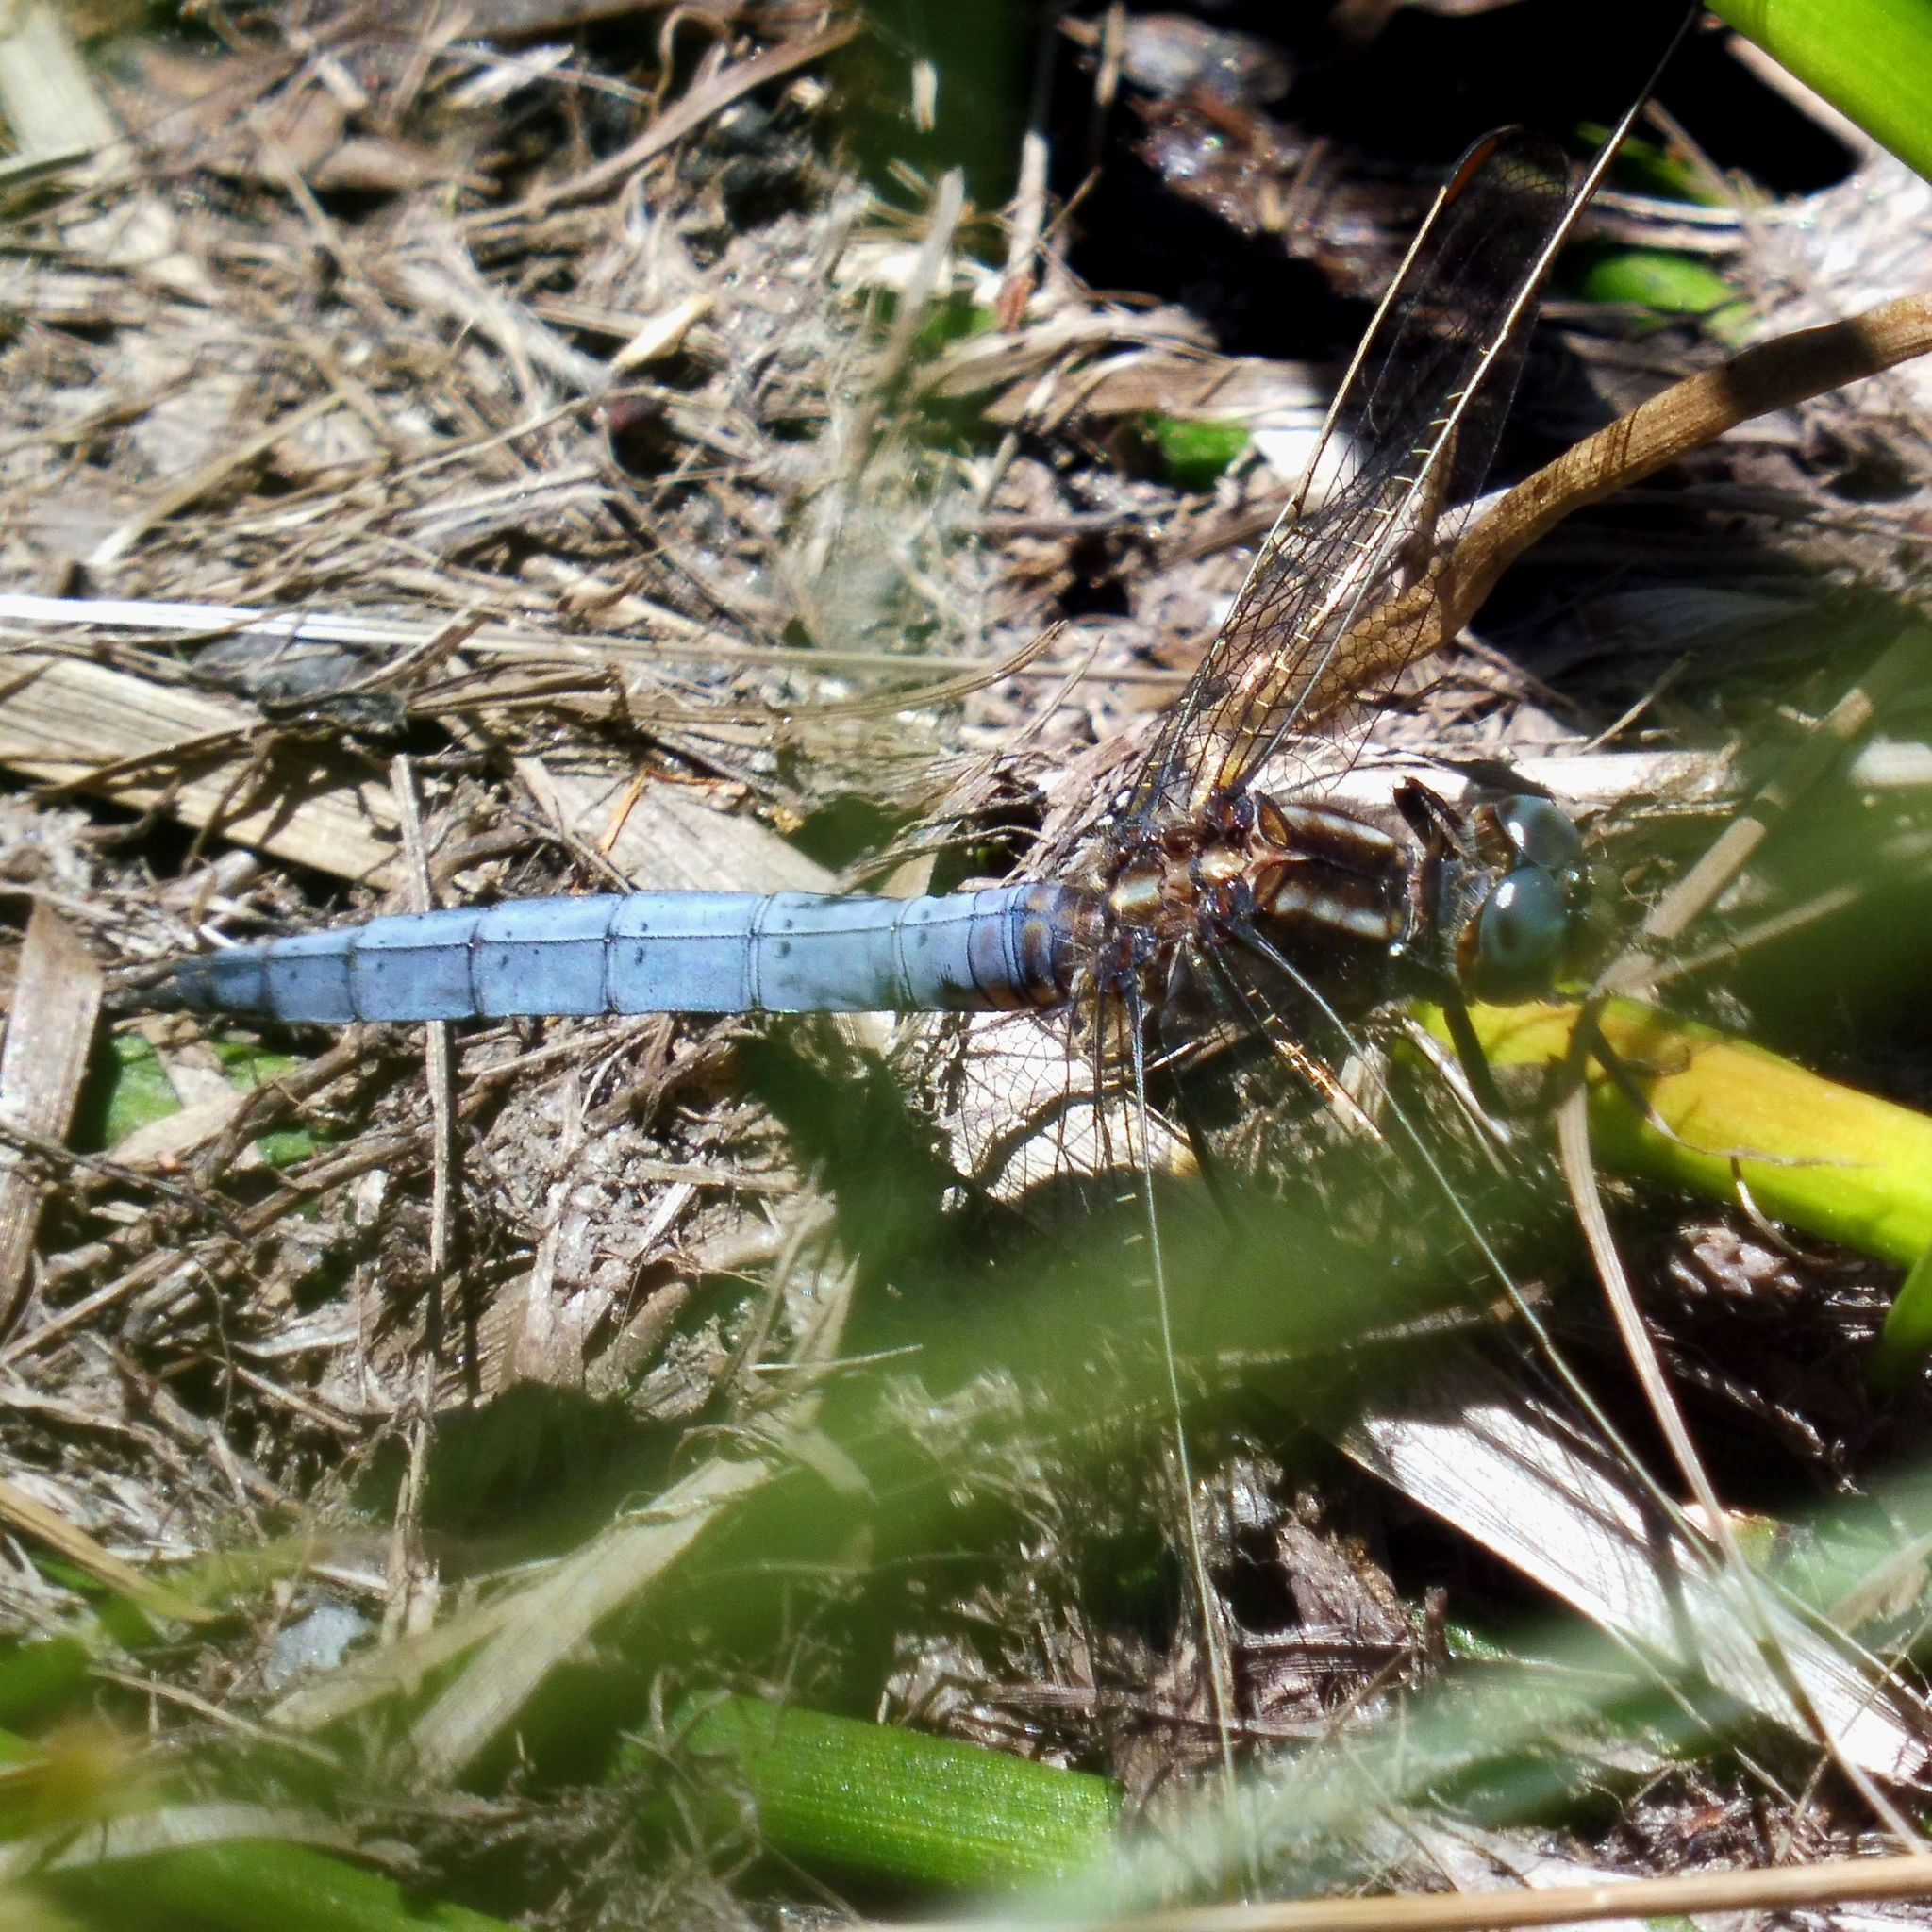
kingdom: Animalia
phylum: Arthropoda
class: Insecta
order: Odonata
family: Libellulidae
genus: Orthetrum
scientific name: Orthetrum coerulescens
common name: Keeled skimmer
